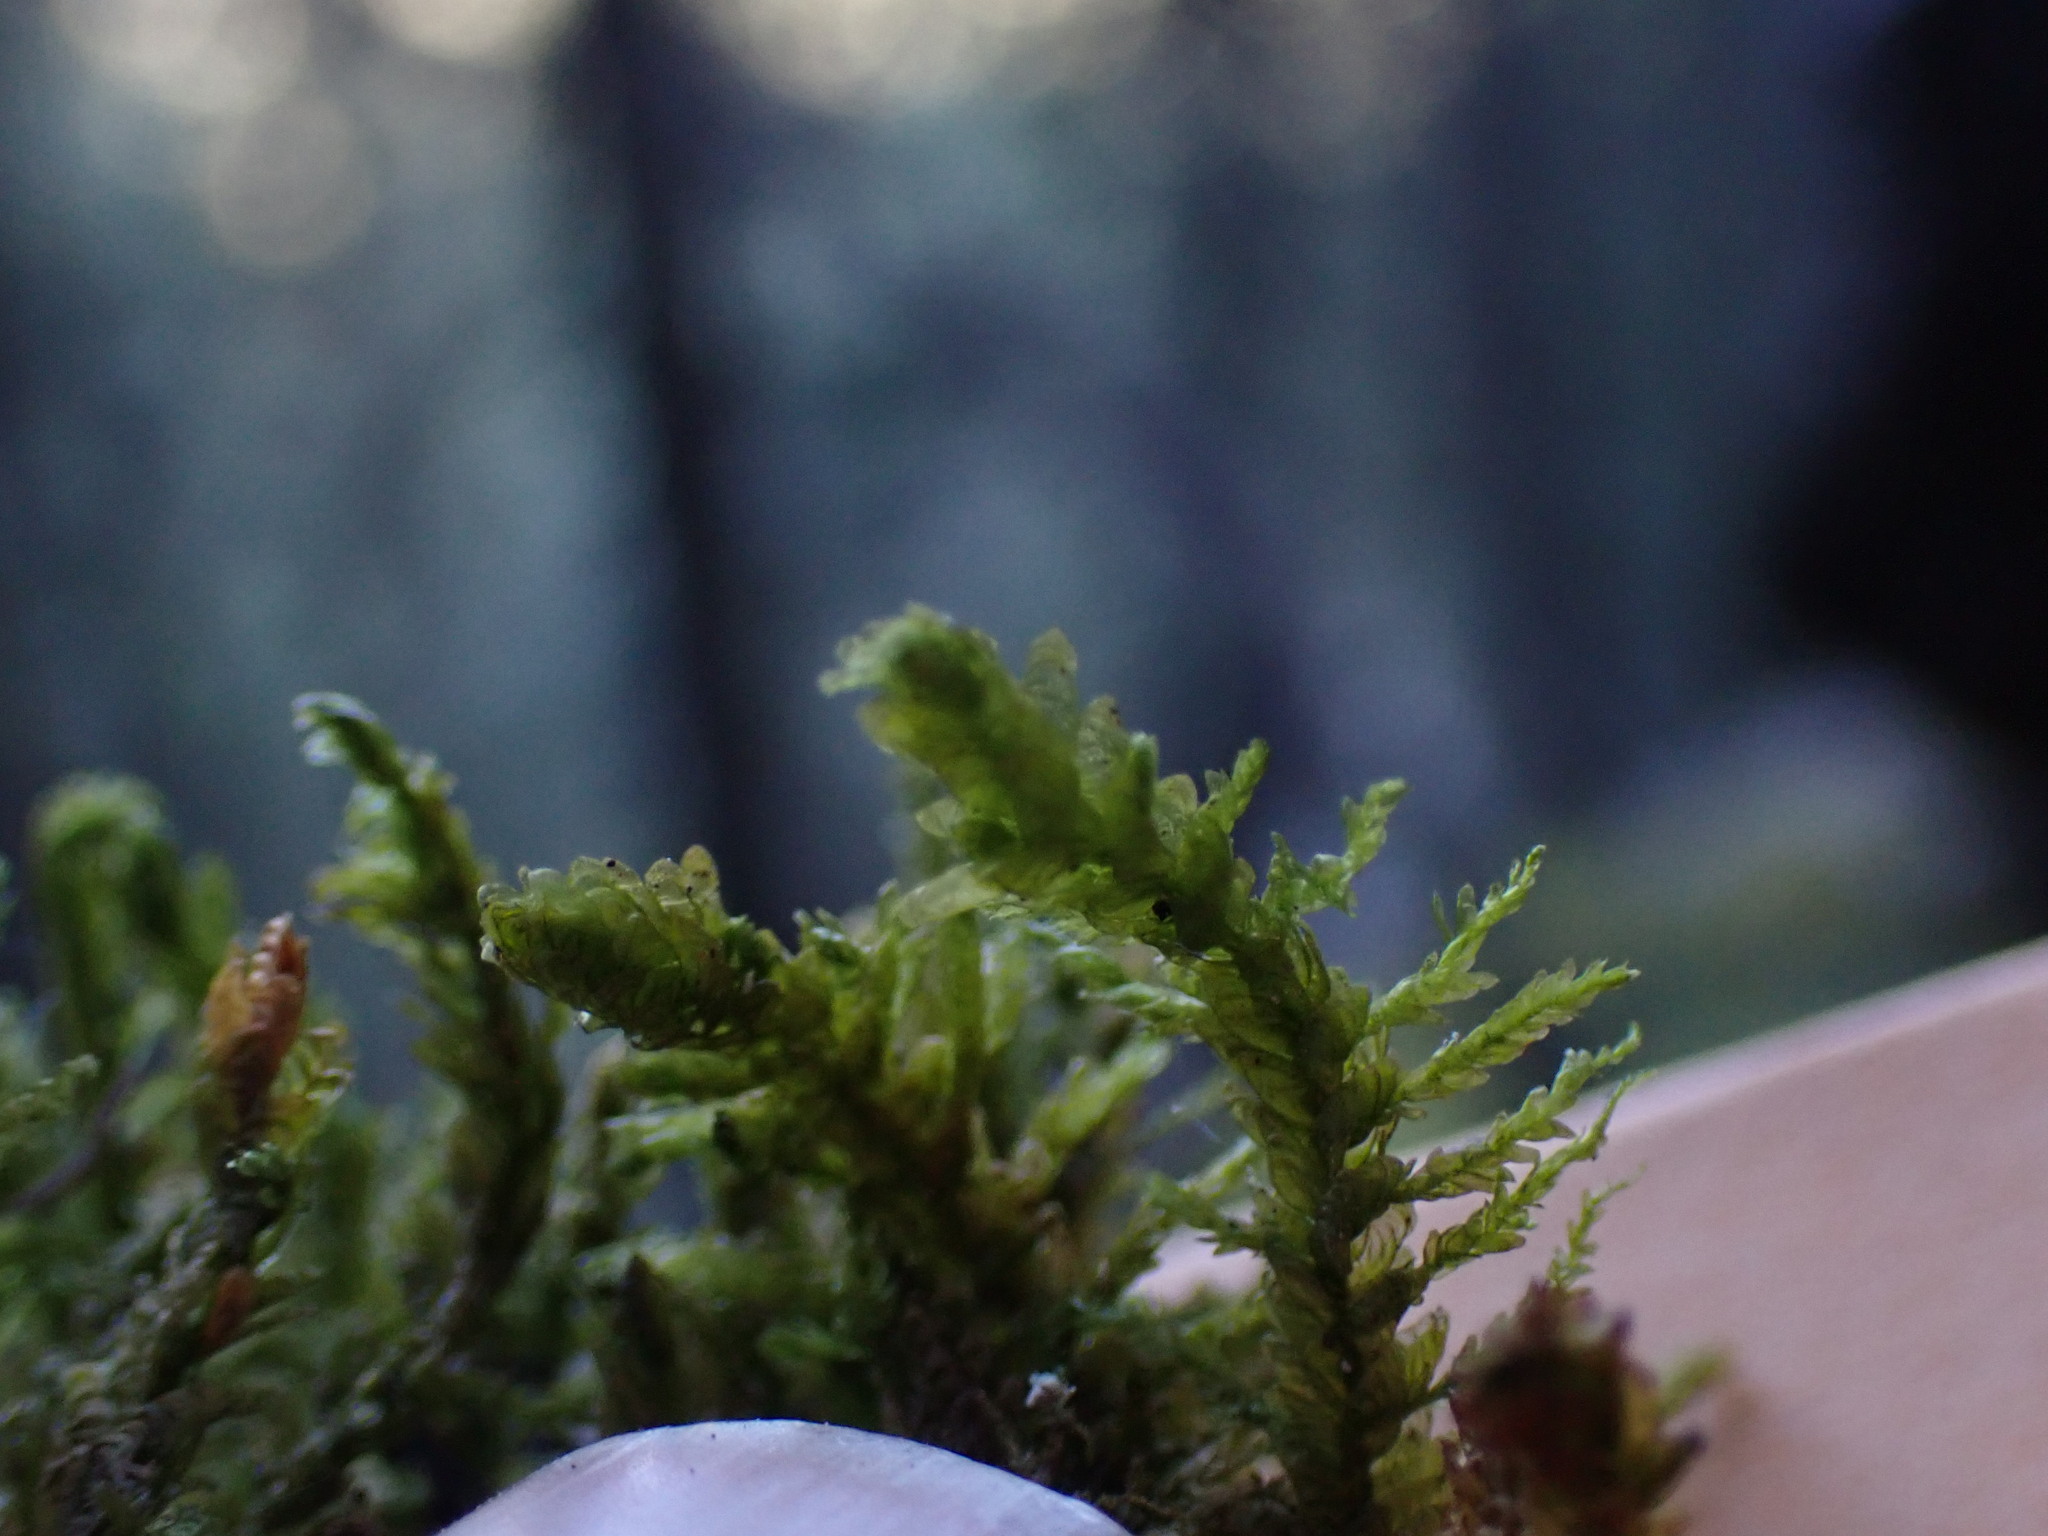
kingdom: Plantae
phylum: Bryophyta
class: Bryopsida
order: Hypnales
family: Neckeraceae
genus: Metaneckera
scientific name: Metaneckera menziesii
